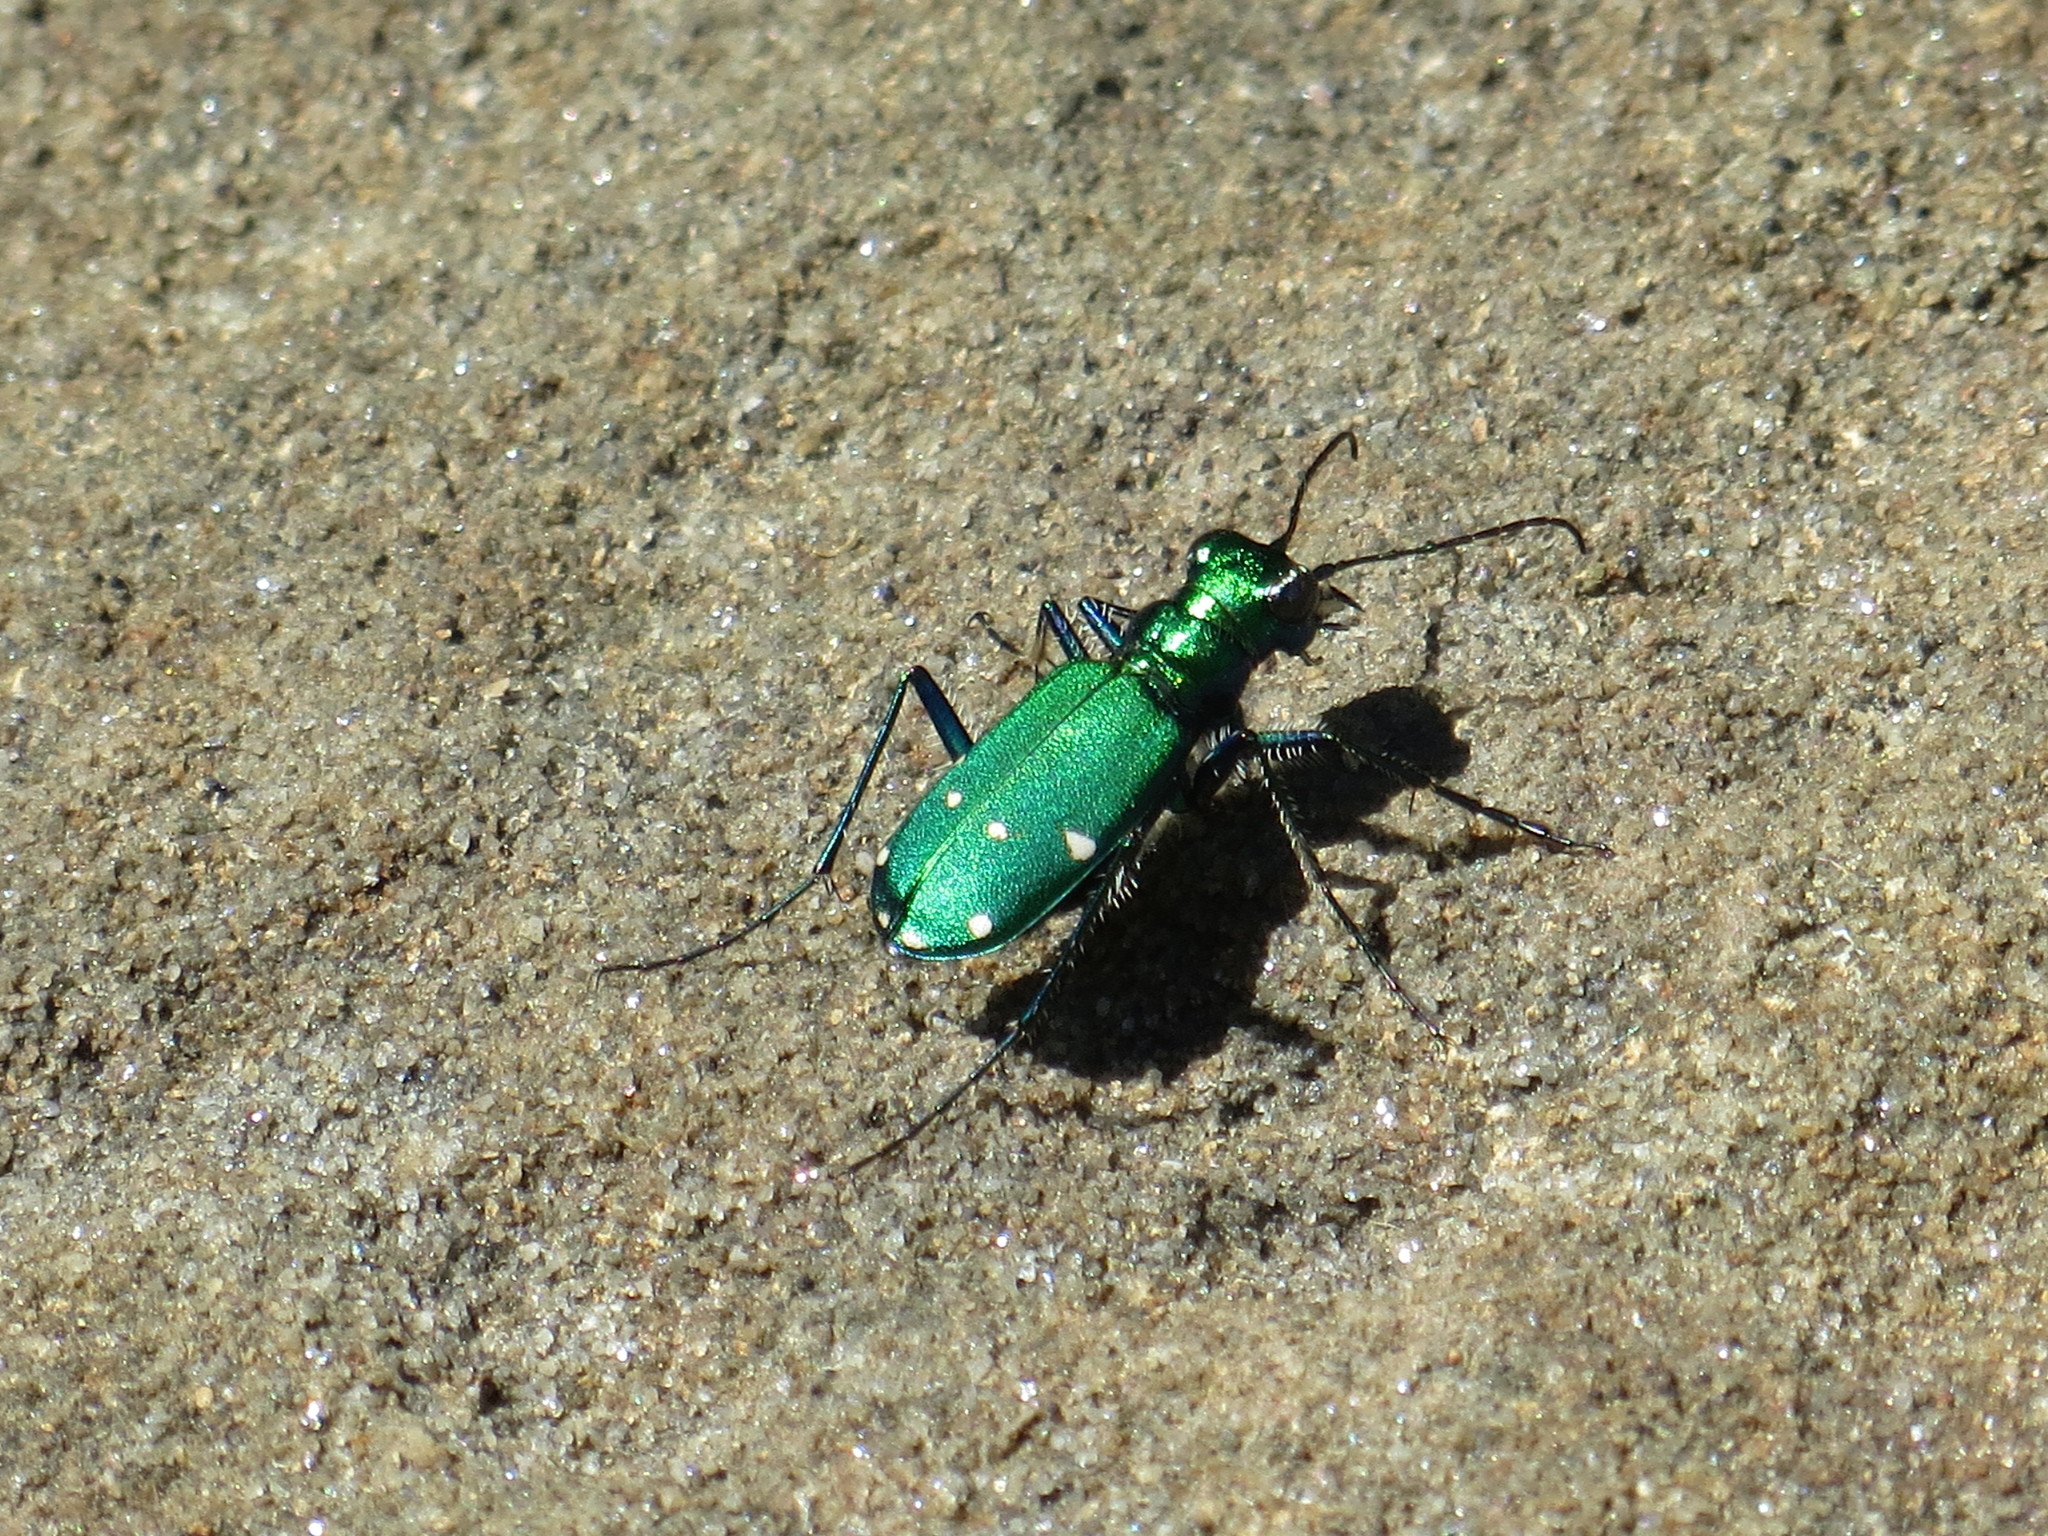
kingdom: Animalia
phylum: Arthropoda
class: Insecta
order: Coleoptera
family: Carabidae
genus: Cicindela
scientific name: Cicindela sexguttata
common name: Six-spotted tiger beetle
